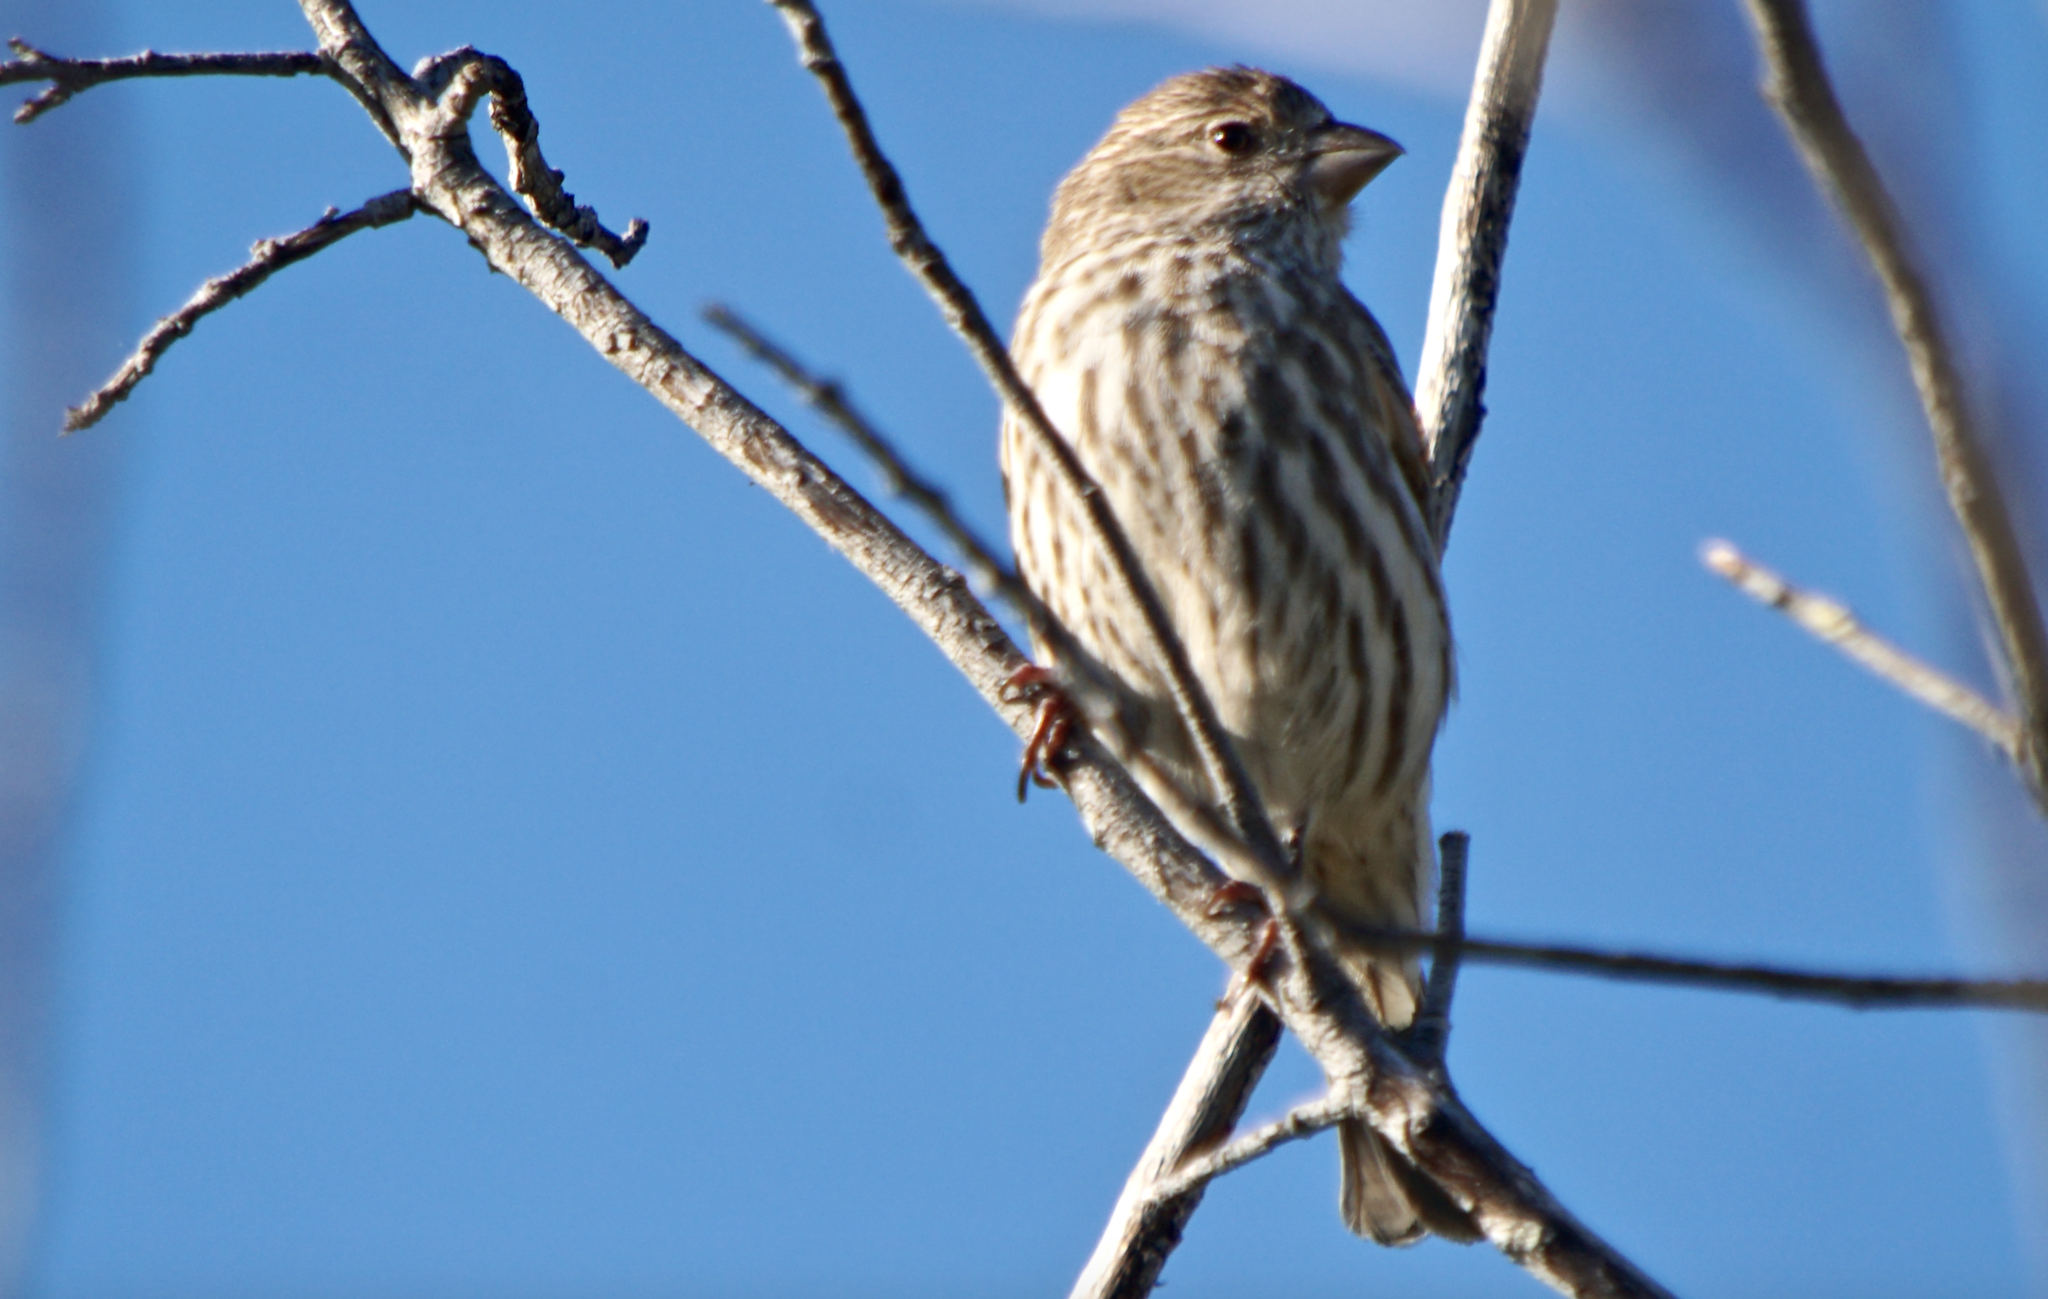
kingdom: Animalia
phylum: Chordata
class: Aves
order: Passeriformes
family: Fringillidae
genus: Haemorhous
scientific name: Haemorhous mexicanus
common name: House finch
